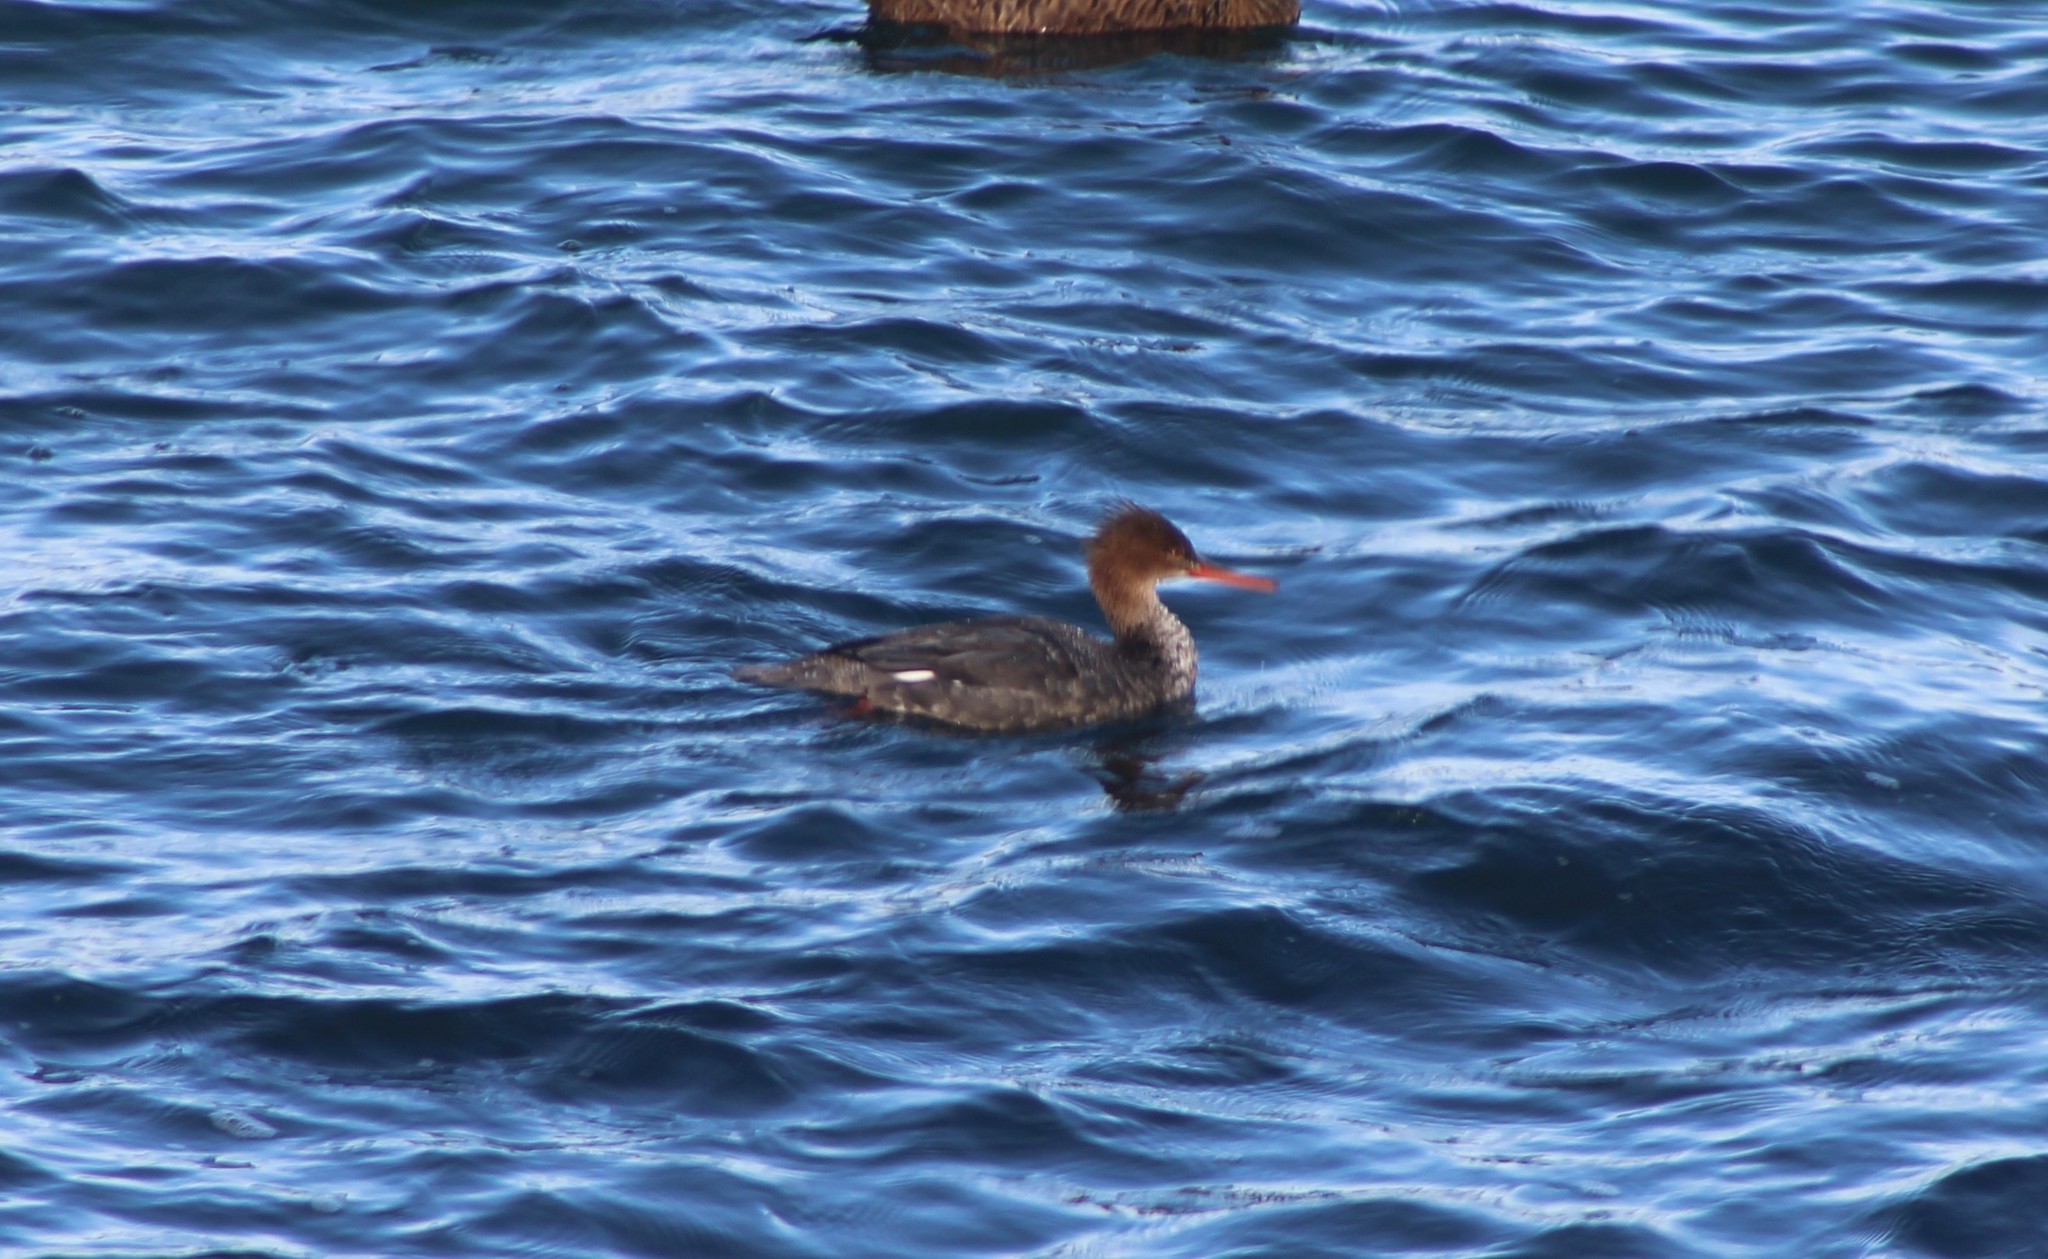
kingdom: Animalia
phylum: Chordata
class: Aves
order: Anseriformes
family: Anatidae
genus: Mergus
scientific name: Mergus serrator
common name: Red-breasted merganser
